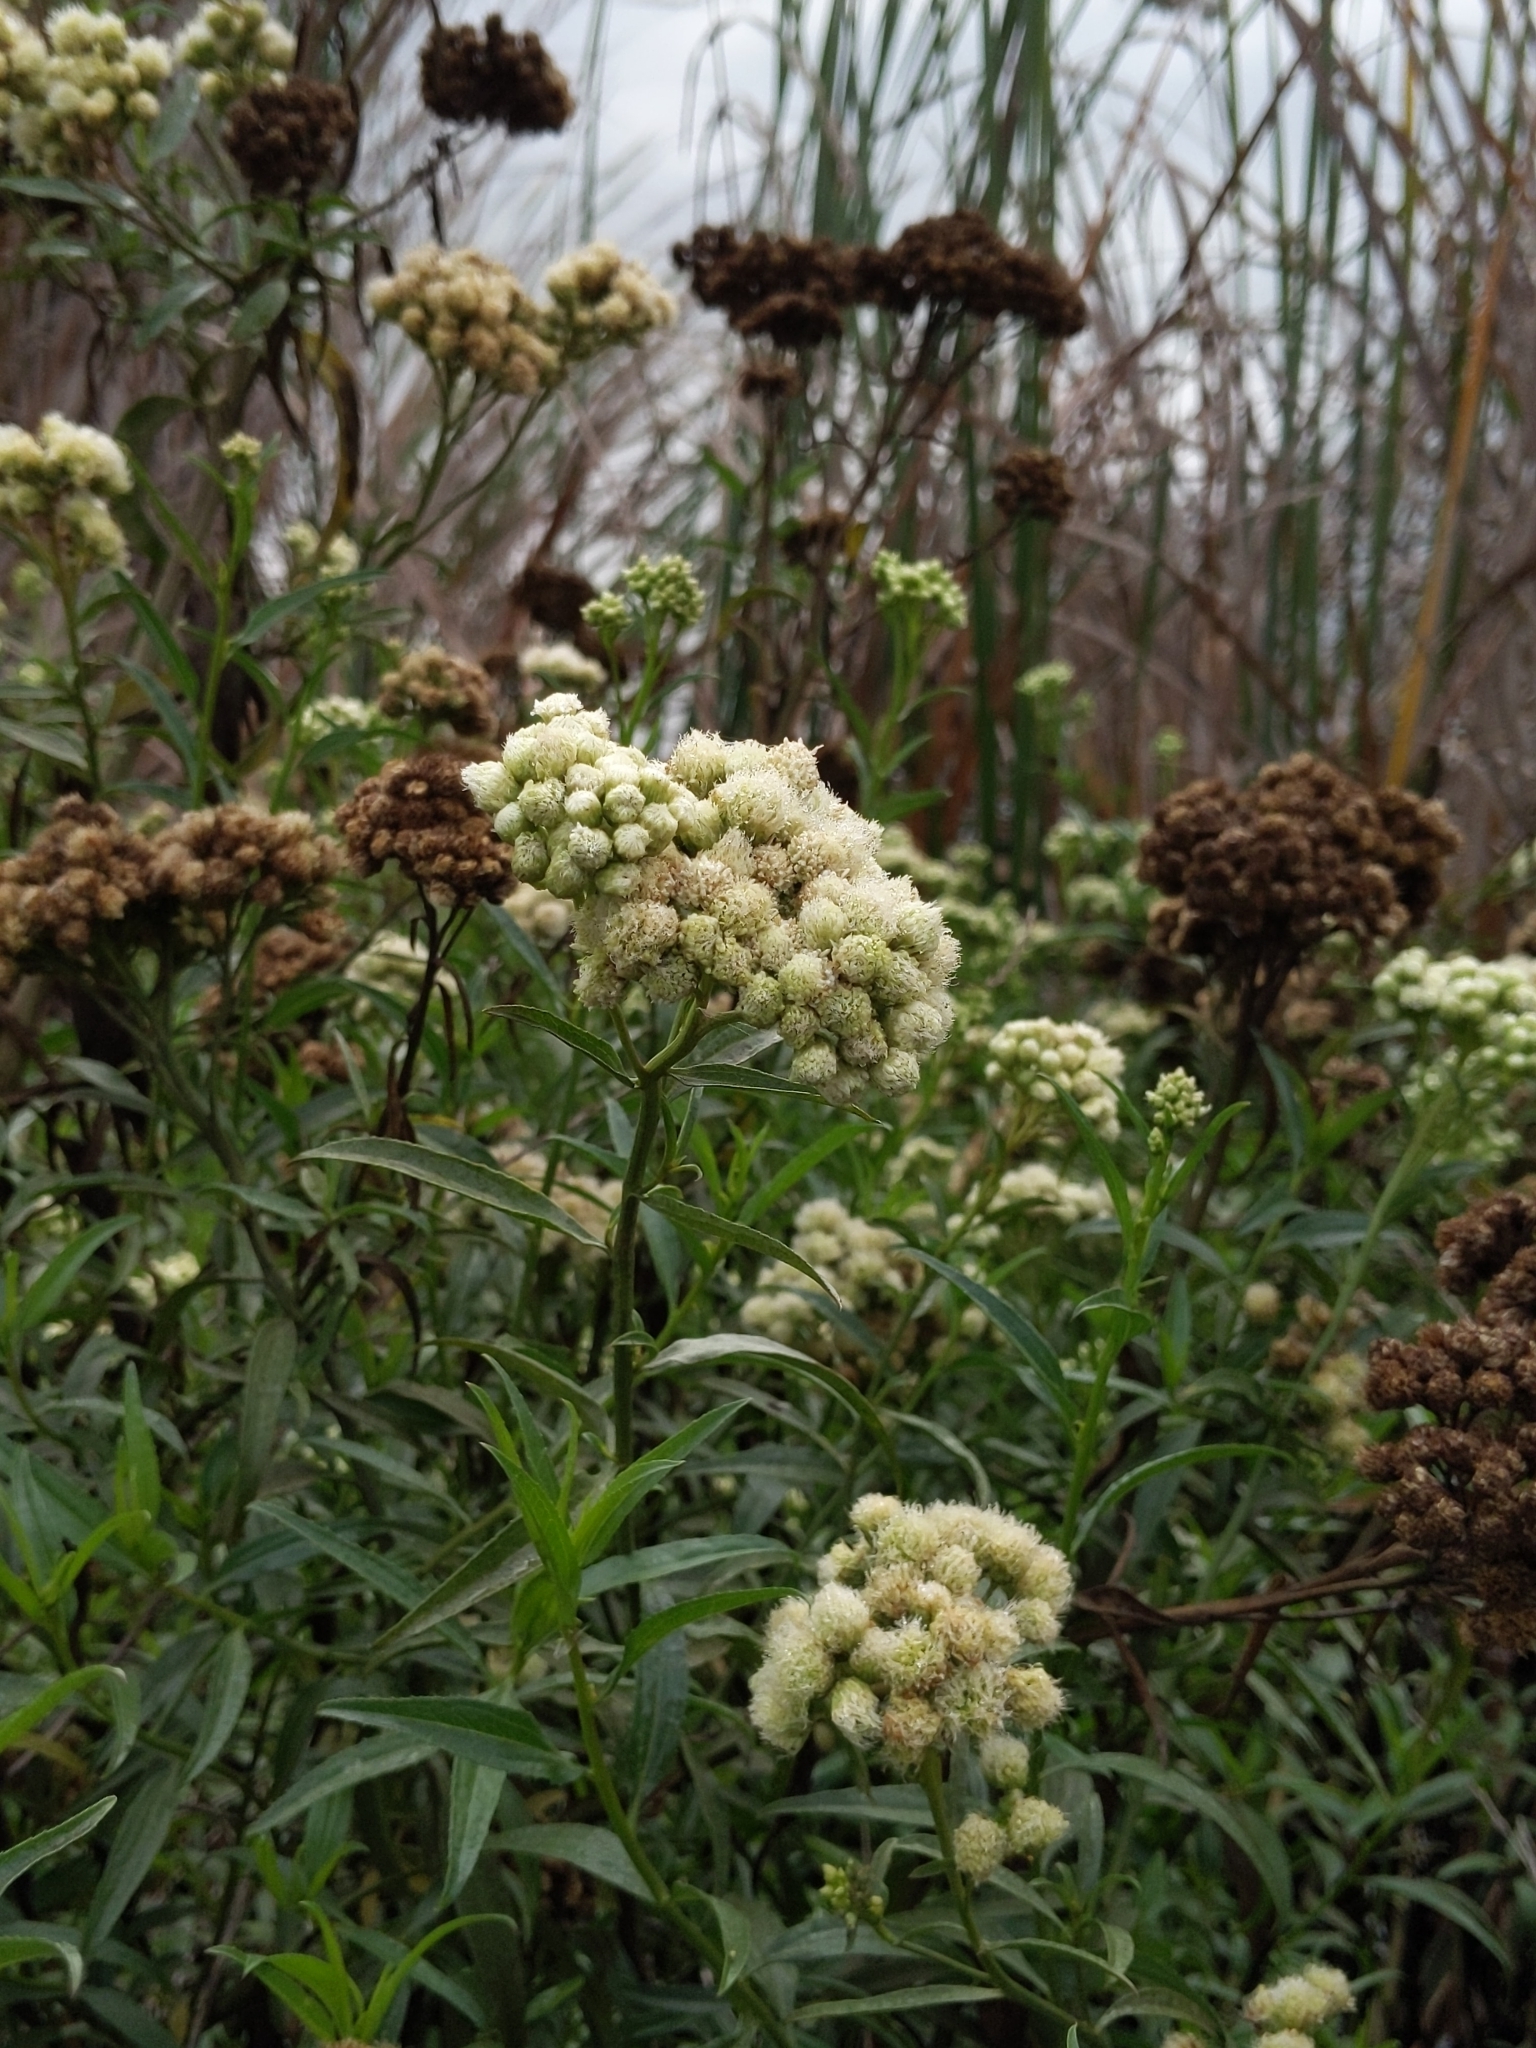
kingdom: Plantae
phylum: Tracheophyta
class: Magnoliopsida
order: Asterales
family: Asteraceae
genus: Baccharis
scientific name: Baccharis glutinosa
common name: Saltmarsh baccharis
